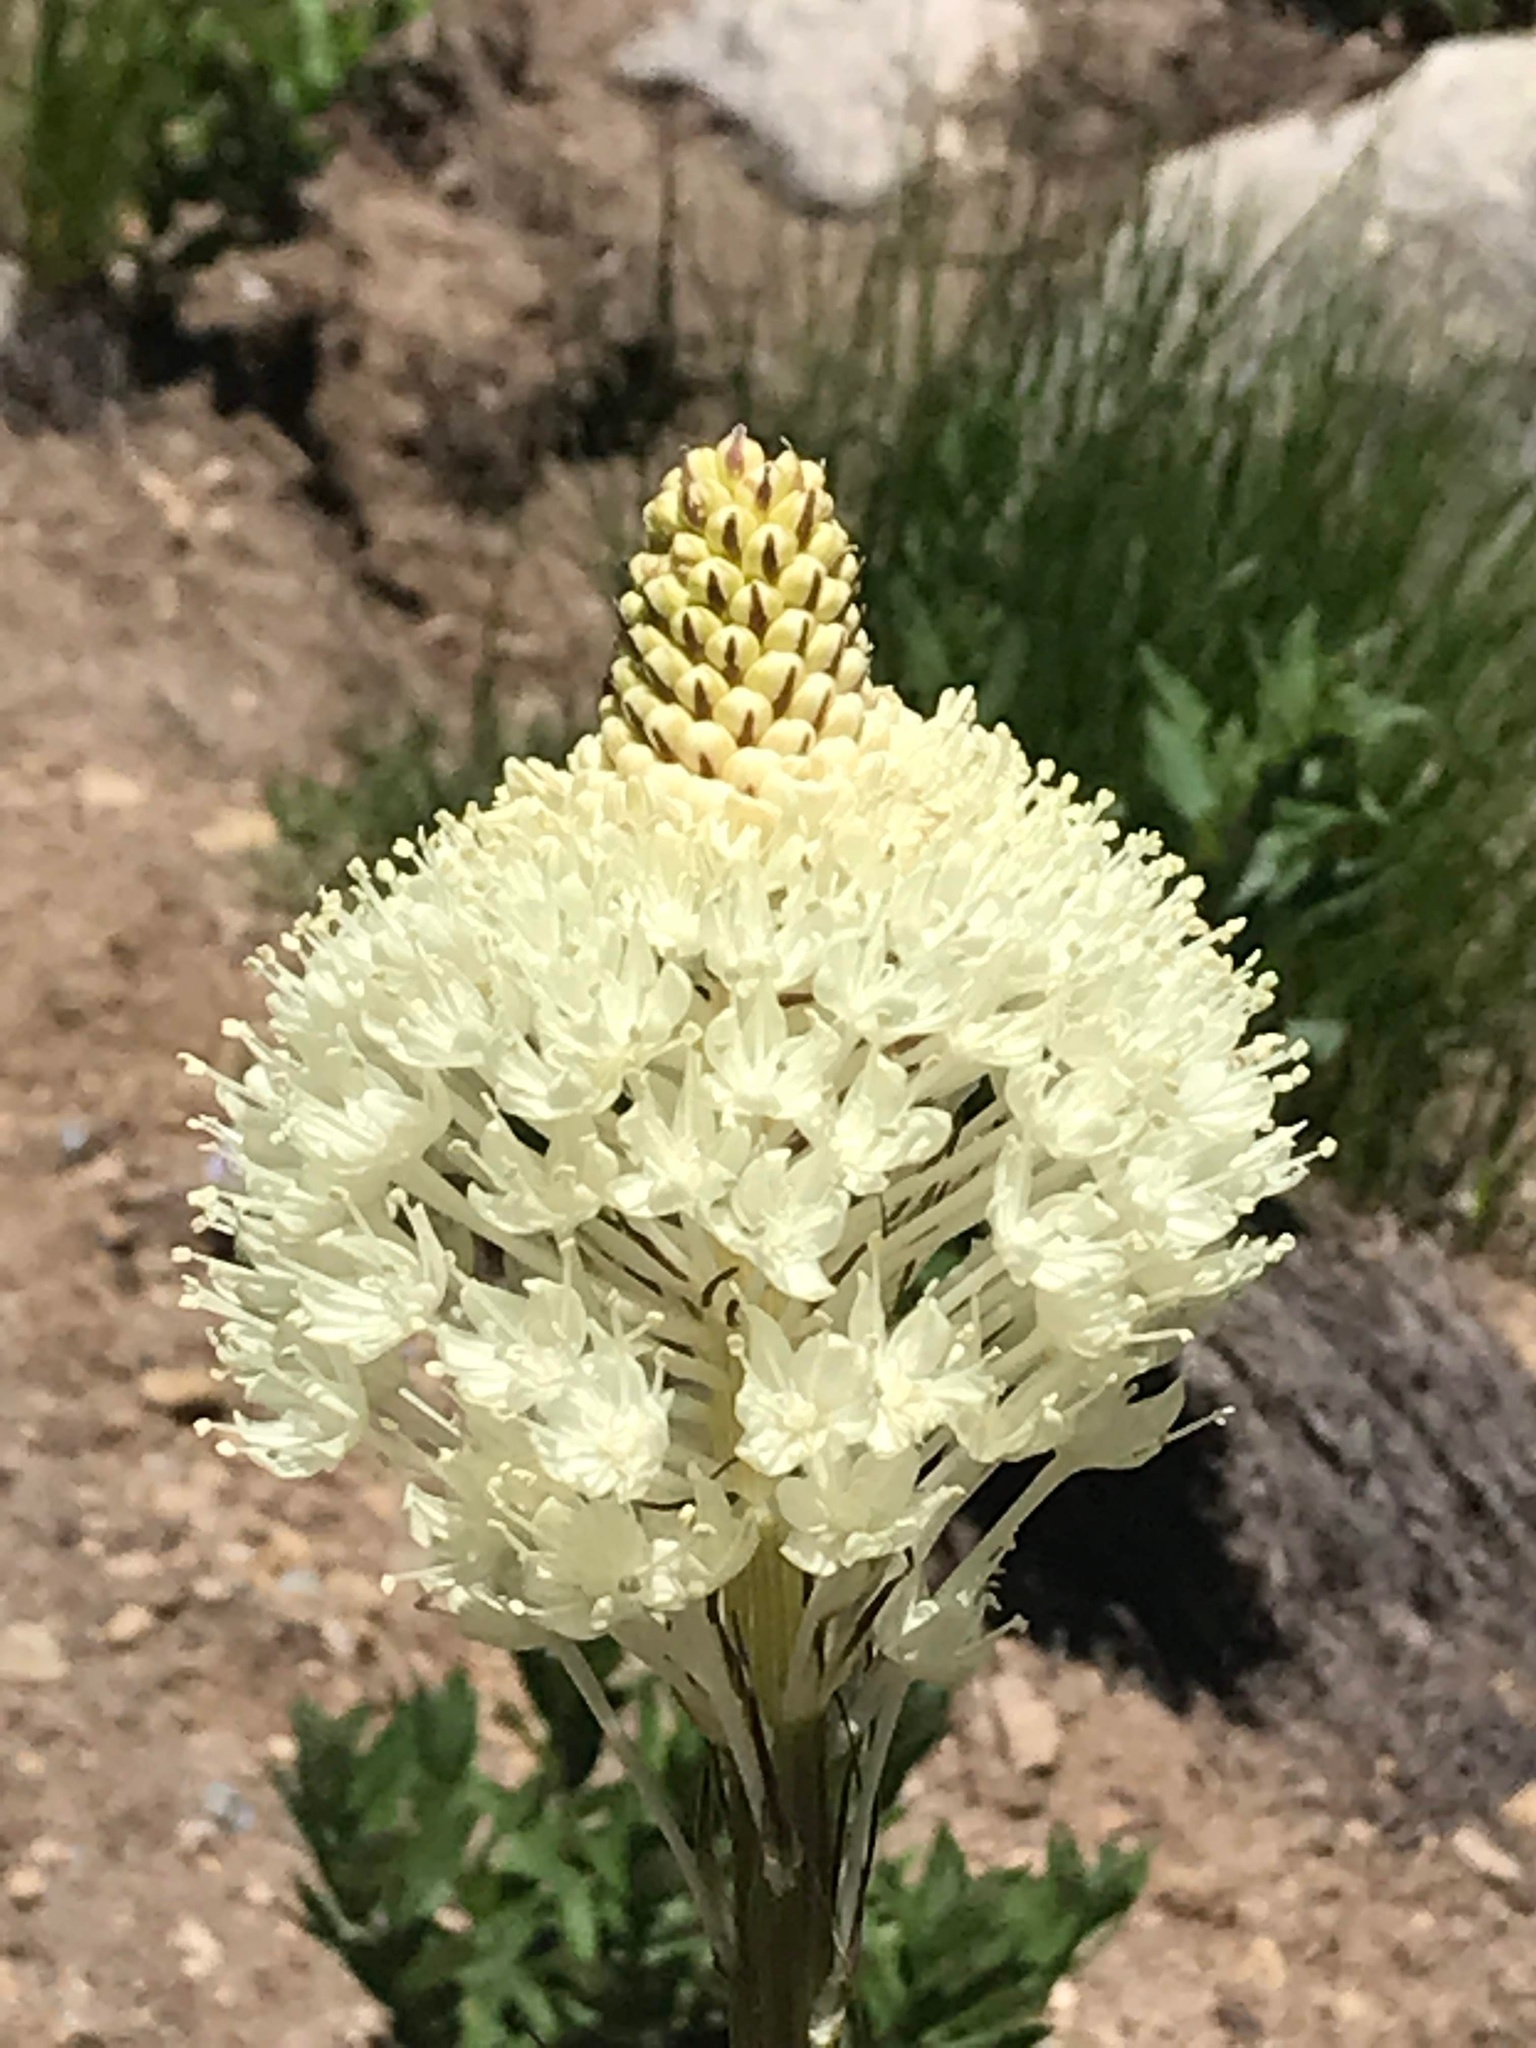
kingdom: Plantae
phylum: Tracheophyta
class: Liliopsida
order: Liliales
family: Melanthiaceae
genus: Xerophyllum
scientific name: Xerophyllum tenax
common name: Bear-grass
